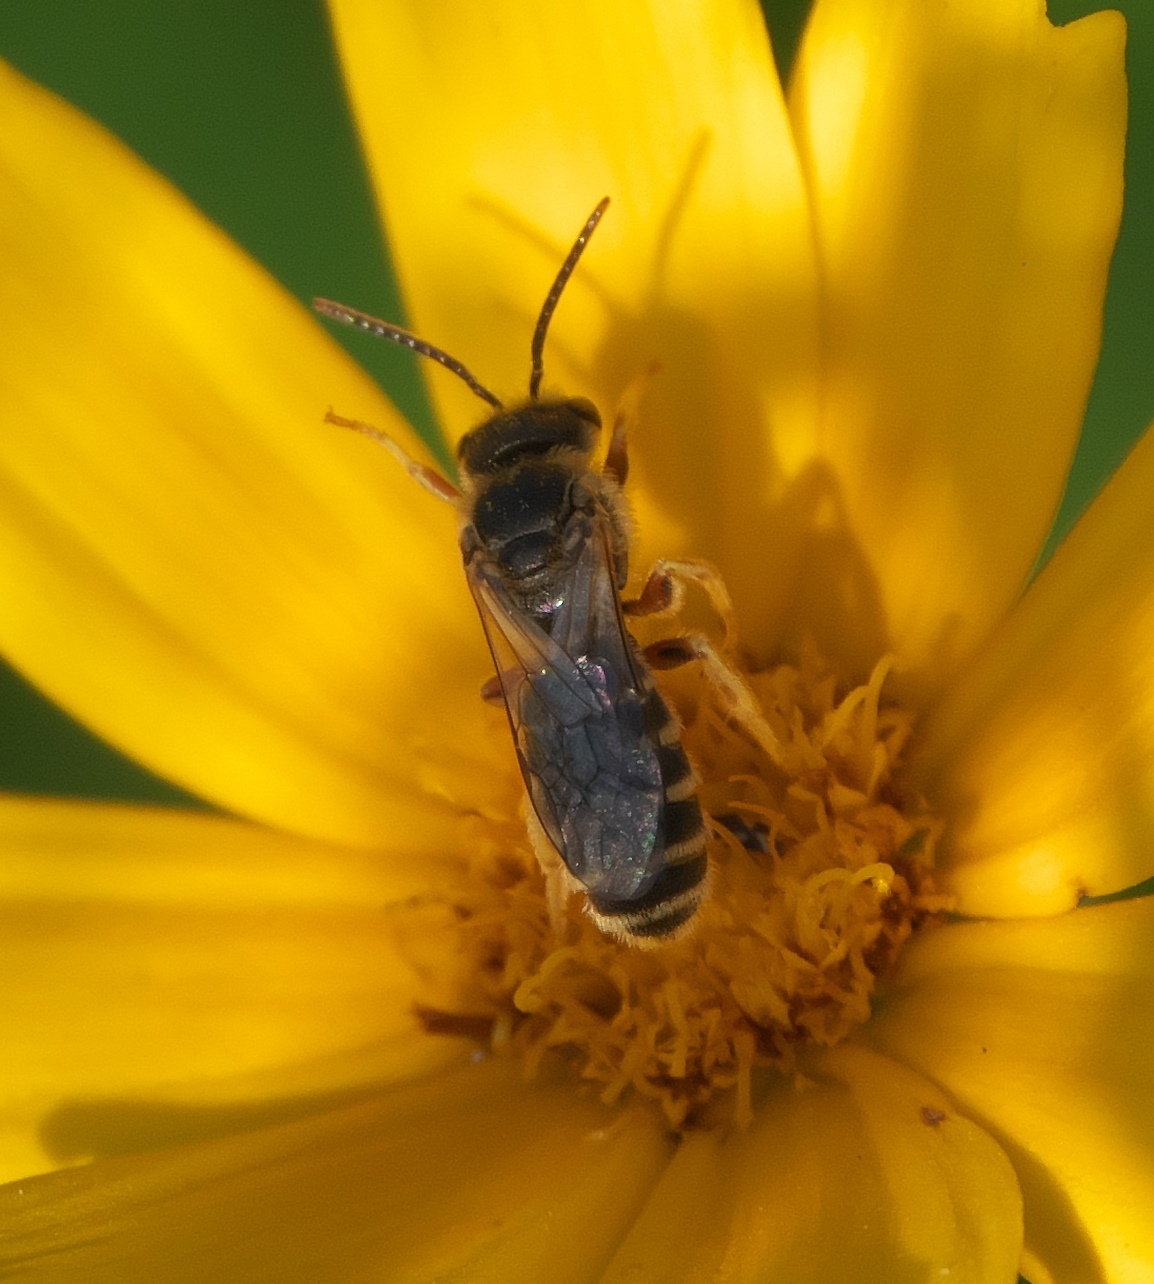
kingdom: Animalia
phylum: Arthropoda
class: Insecta
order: Hymenoptera
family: Halictidae
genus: Halictus
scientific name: Halictus ligatus
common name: Ligated furrow bee
